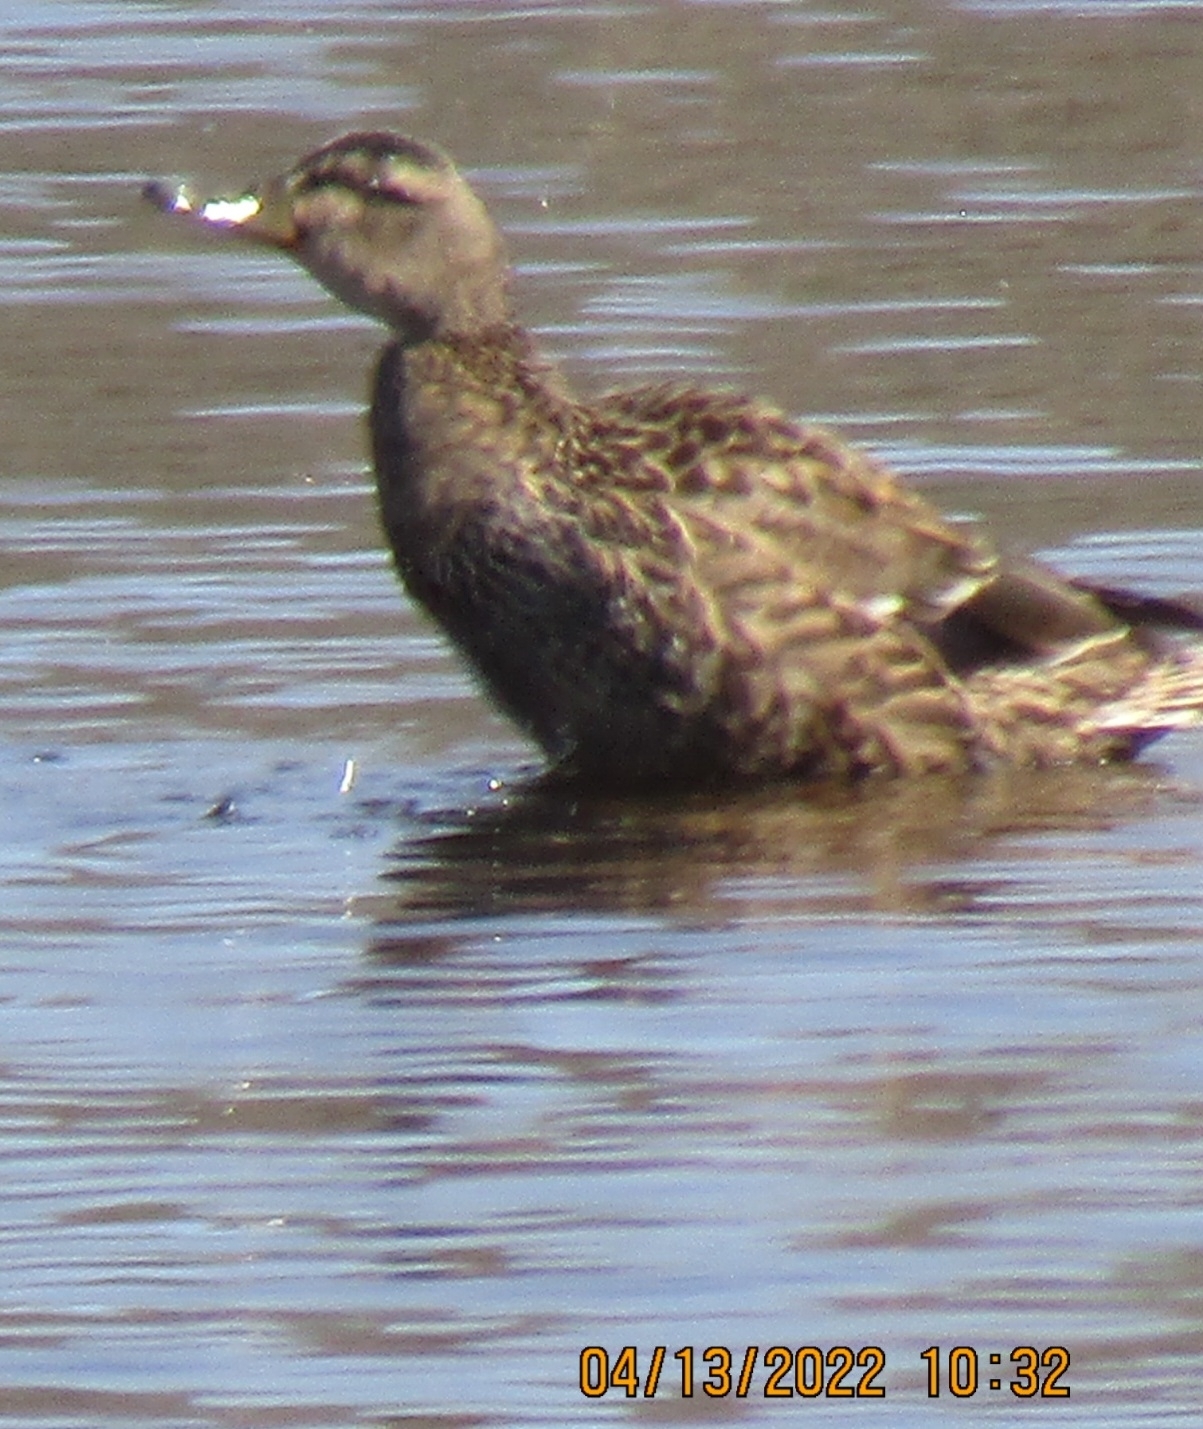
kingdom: Animalia
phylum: Chordata
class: Aves
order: Anseriformes
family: Anatidae
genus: Anas
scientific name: Anas rubripes
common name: American black duck
